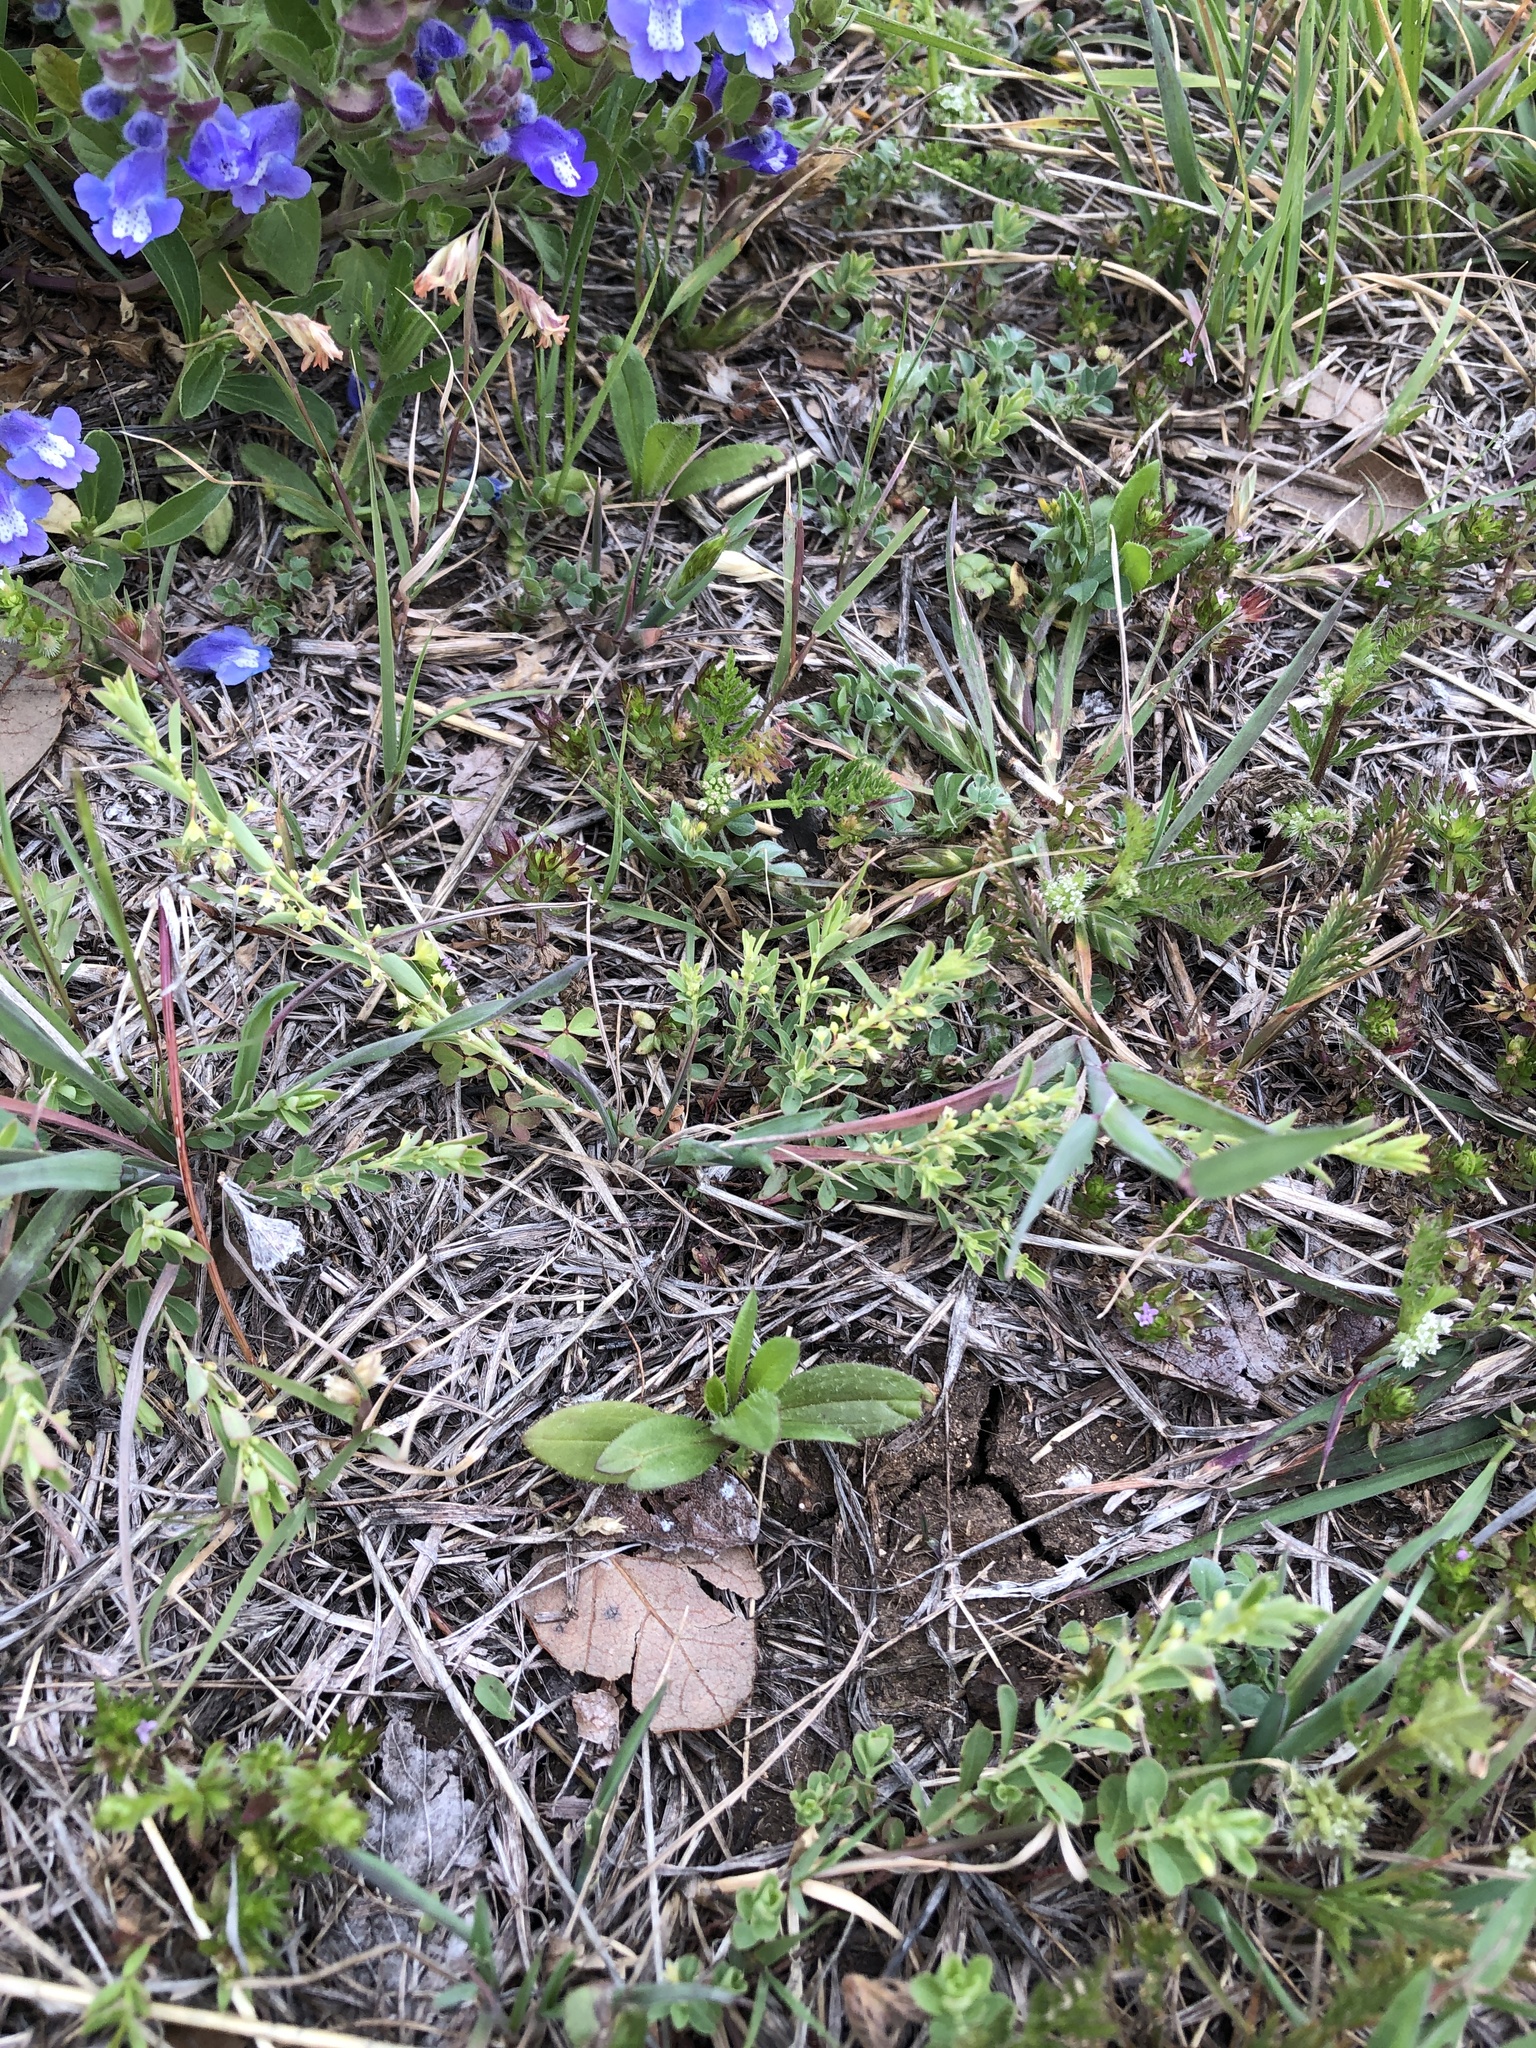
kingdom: Plantae
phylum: Tracheophyta
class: Magnoliopsida
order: Malpighiales
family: Phyllanthaceae
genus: Phyllanthus
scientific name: Phyllanthus polygonoides
